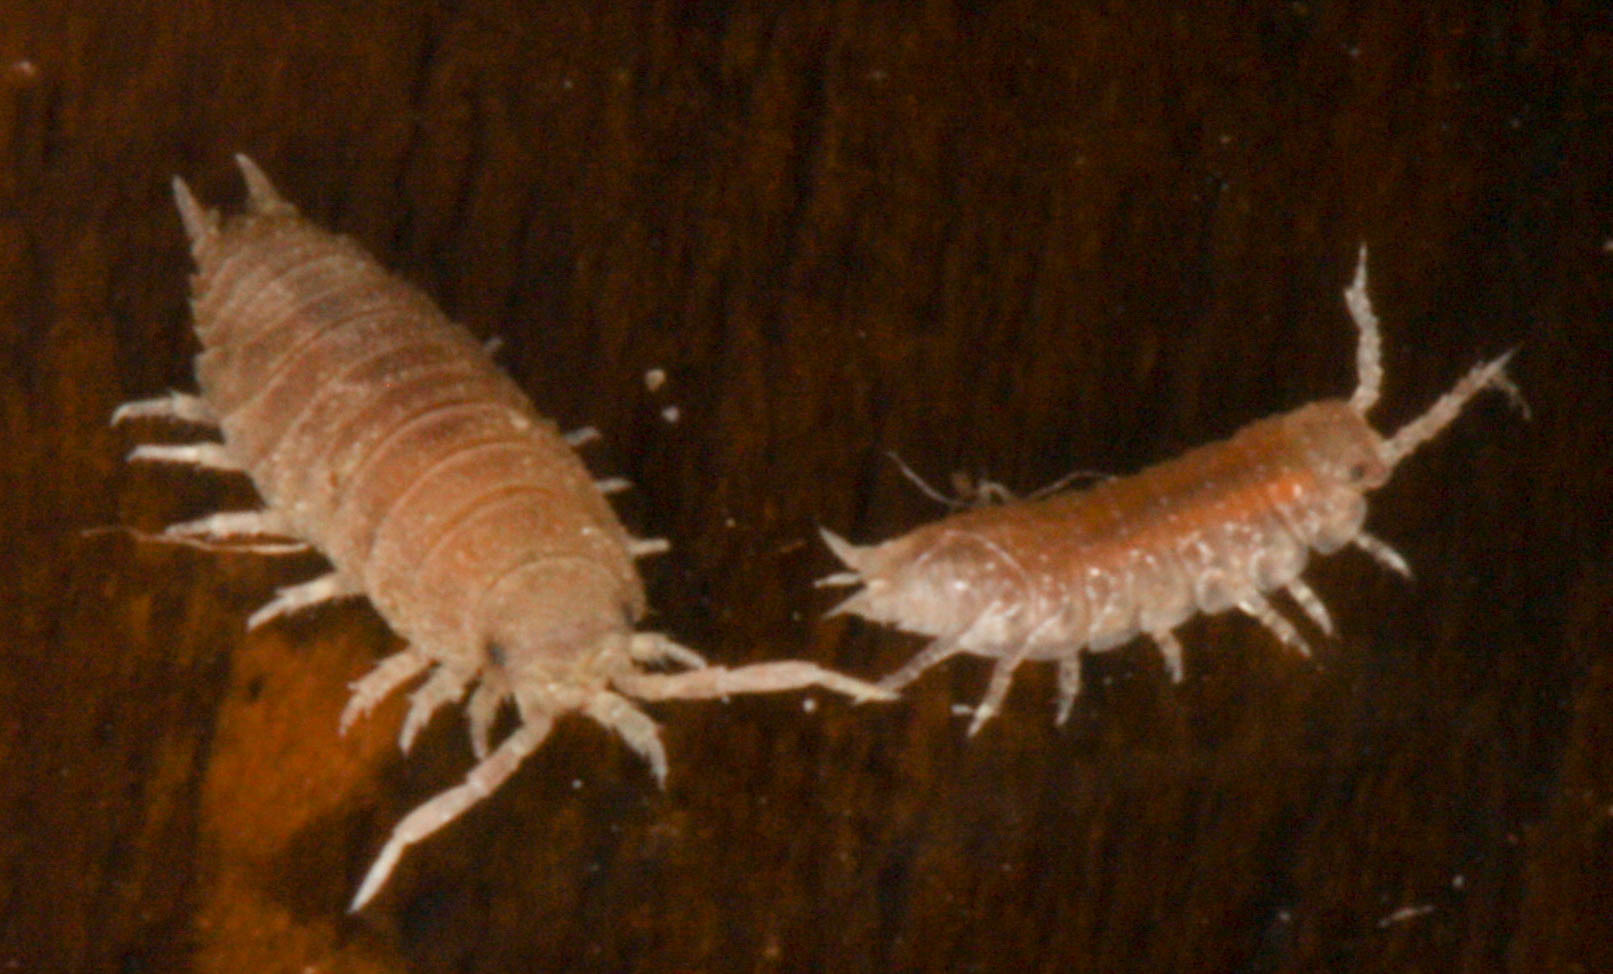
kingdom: Animalia
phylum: Arthropoda
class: Malacostraca
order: Isopoda
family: Detonidae
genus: Detonella
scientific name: Detonella papillicornis
